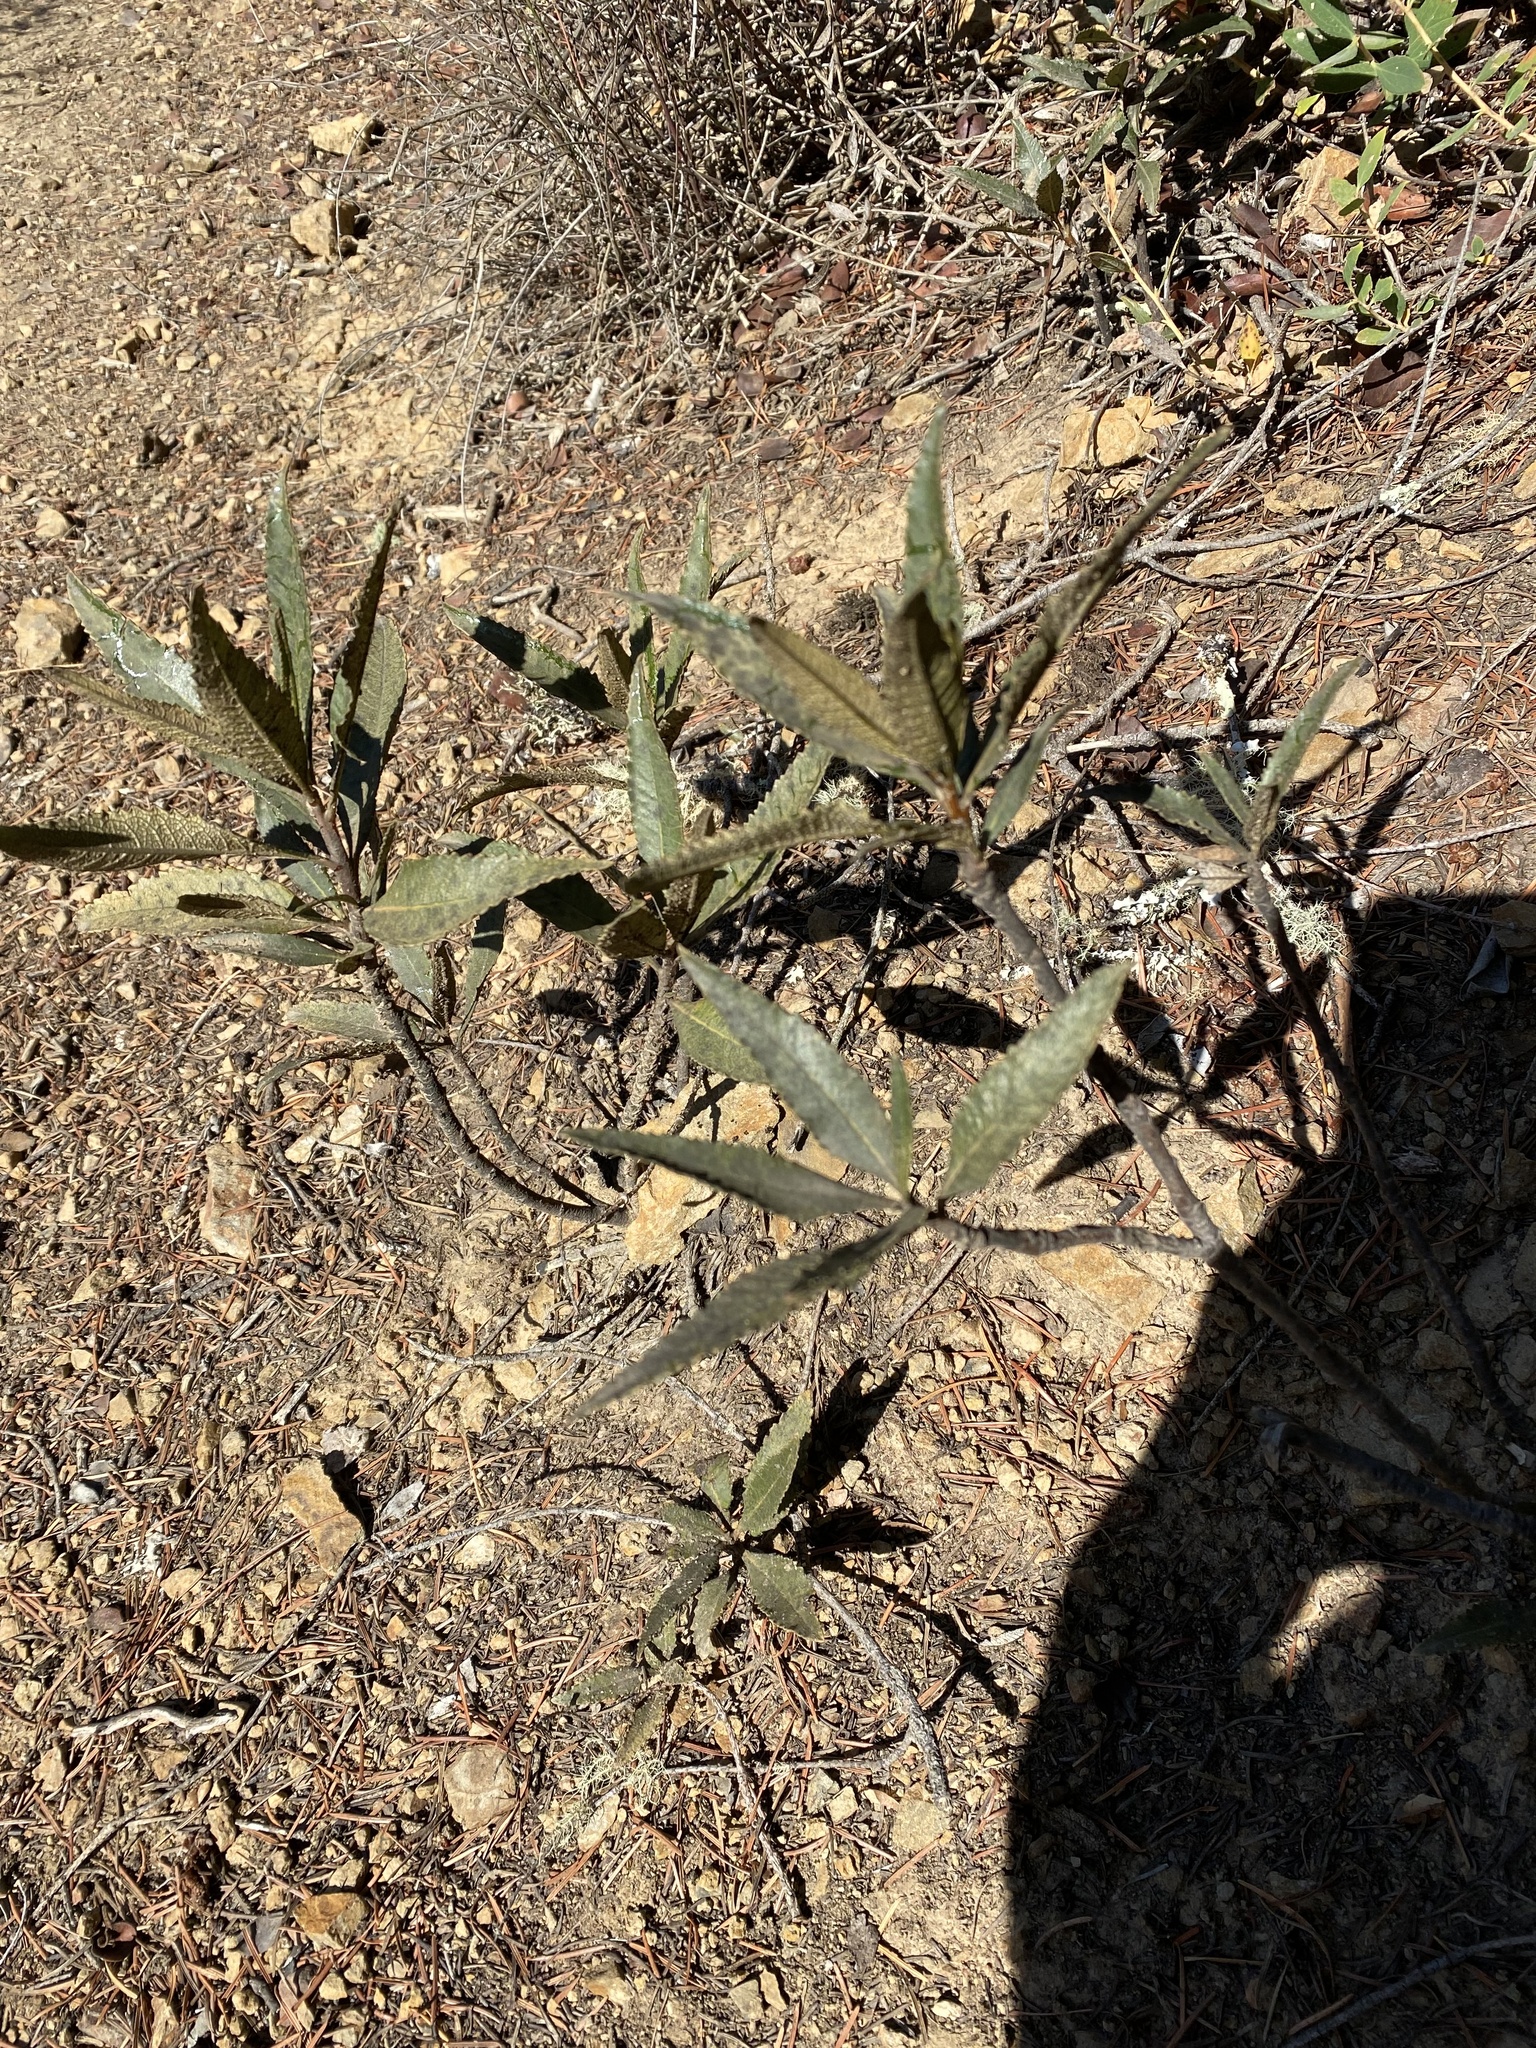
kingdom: Plantae
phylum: Tracheophyta
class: Magnoliopsida
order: Boraginales
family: Namaceae
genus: Eriodictyon
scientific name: Eriodictyon californicum
